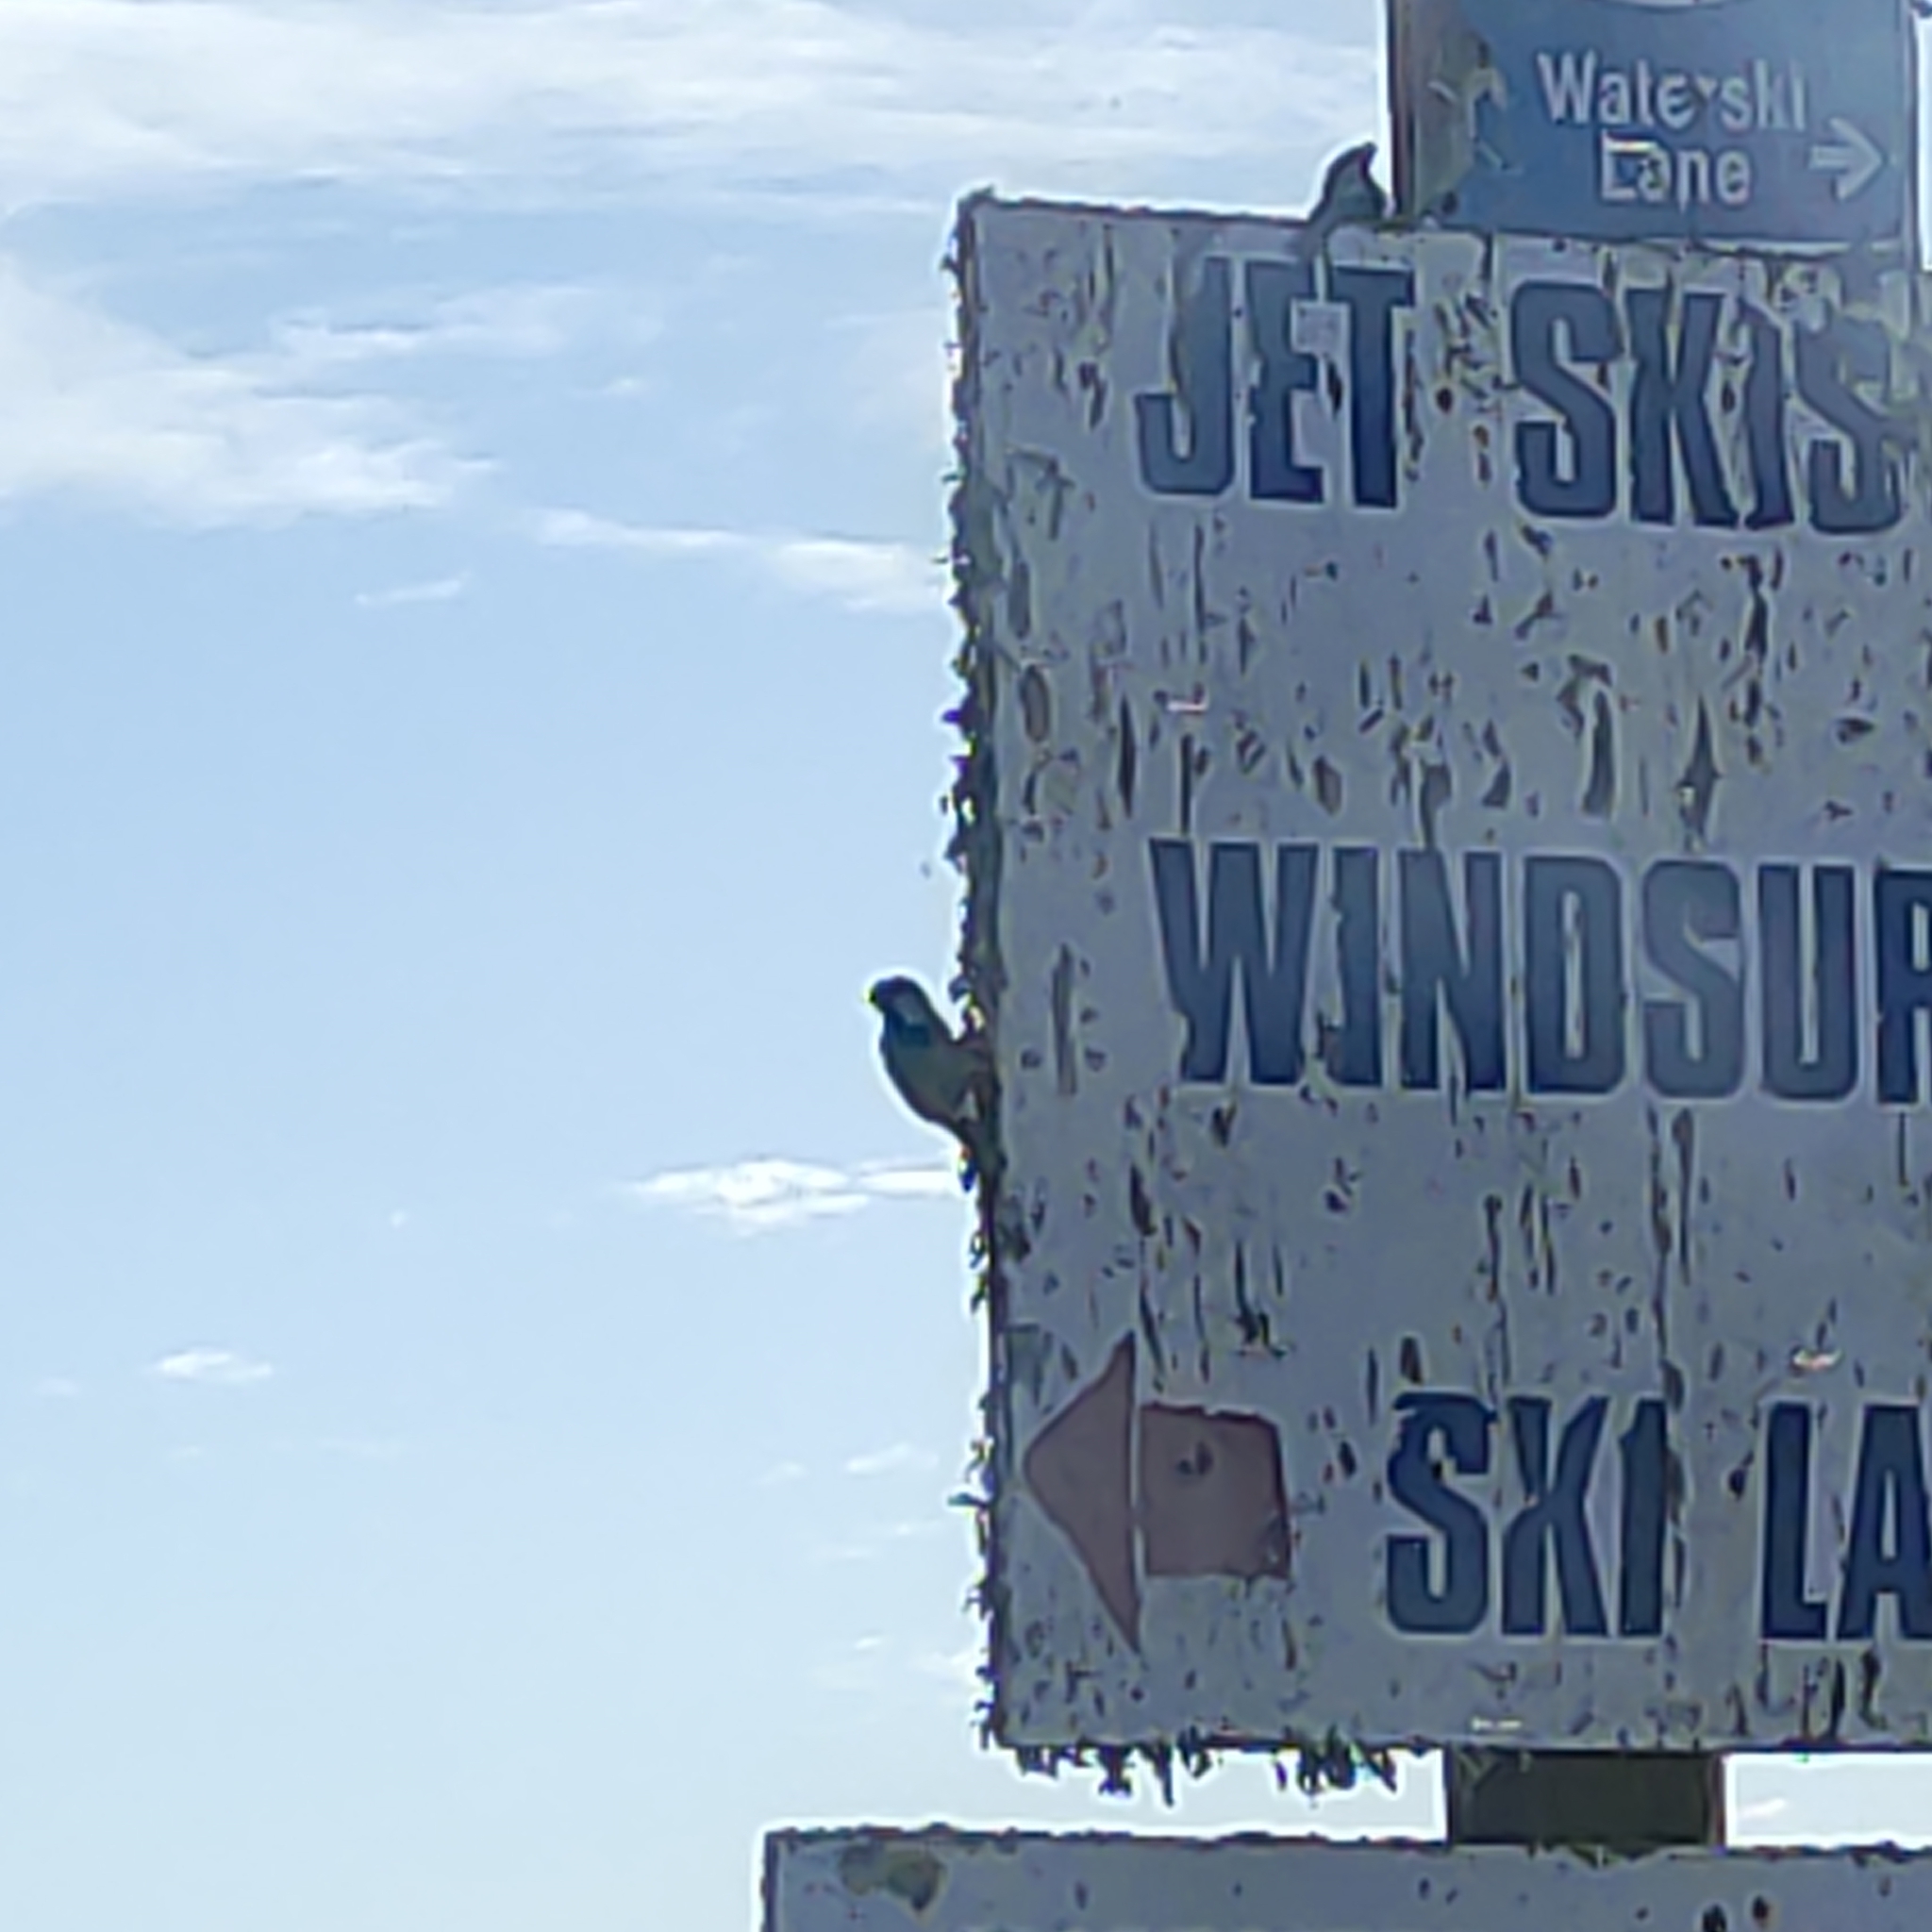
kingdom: Animalia
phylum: Chordata
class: Aves
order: Passeriformes
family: Passeridae
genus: Passer
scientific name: Passer domesticus
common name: House sparrow
